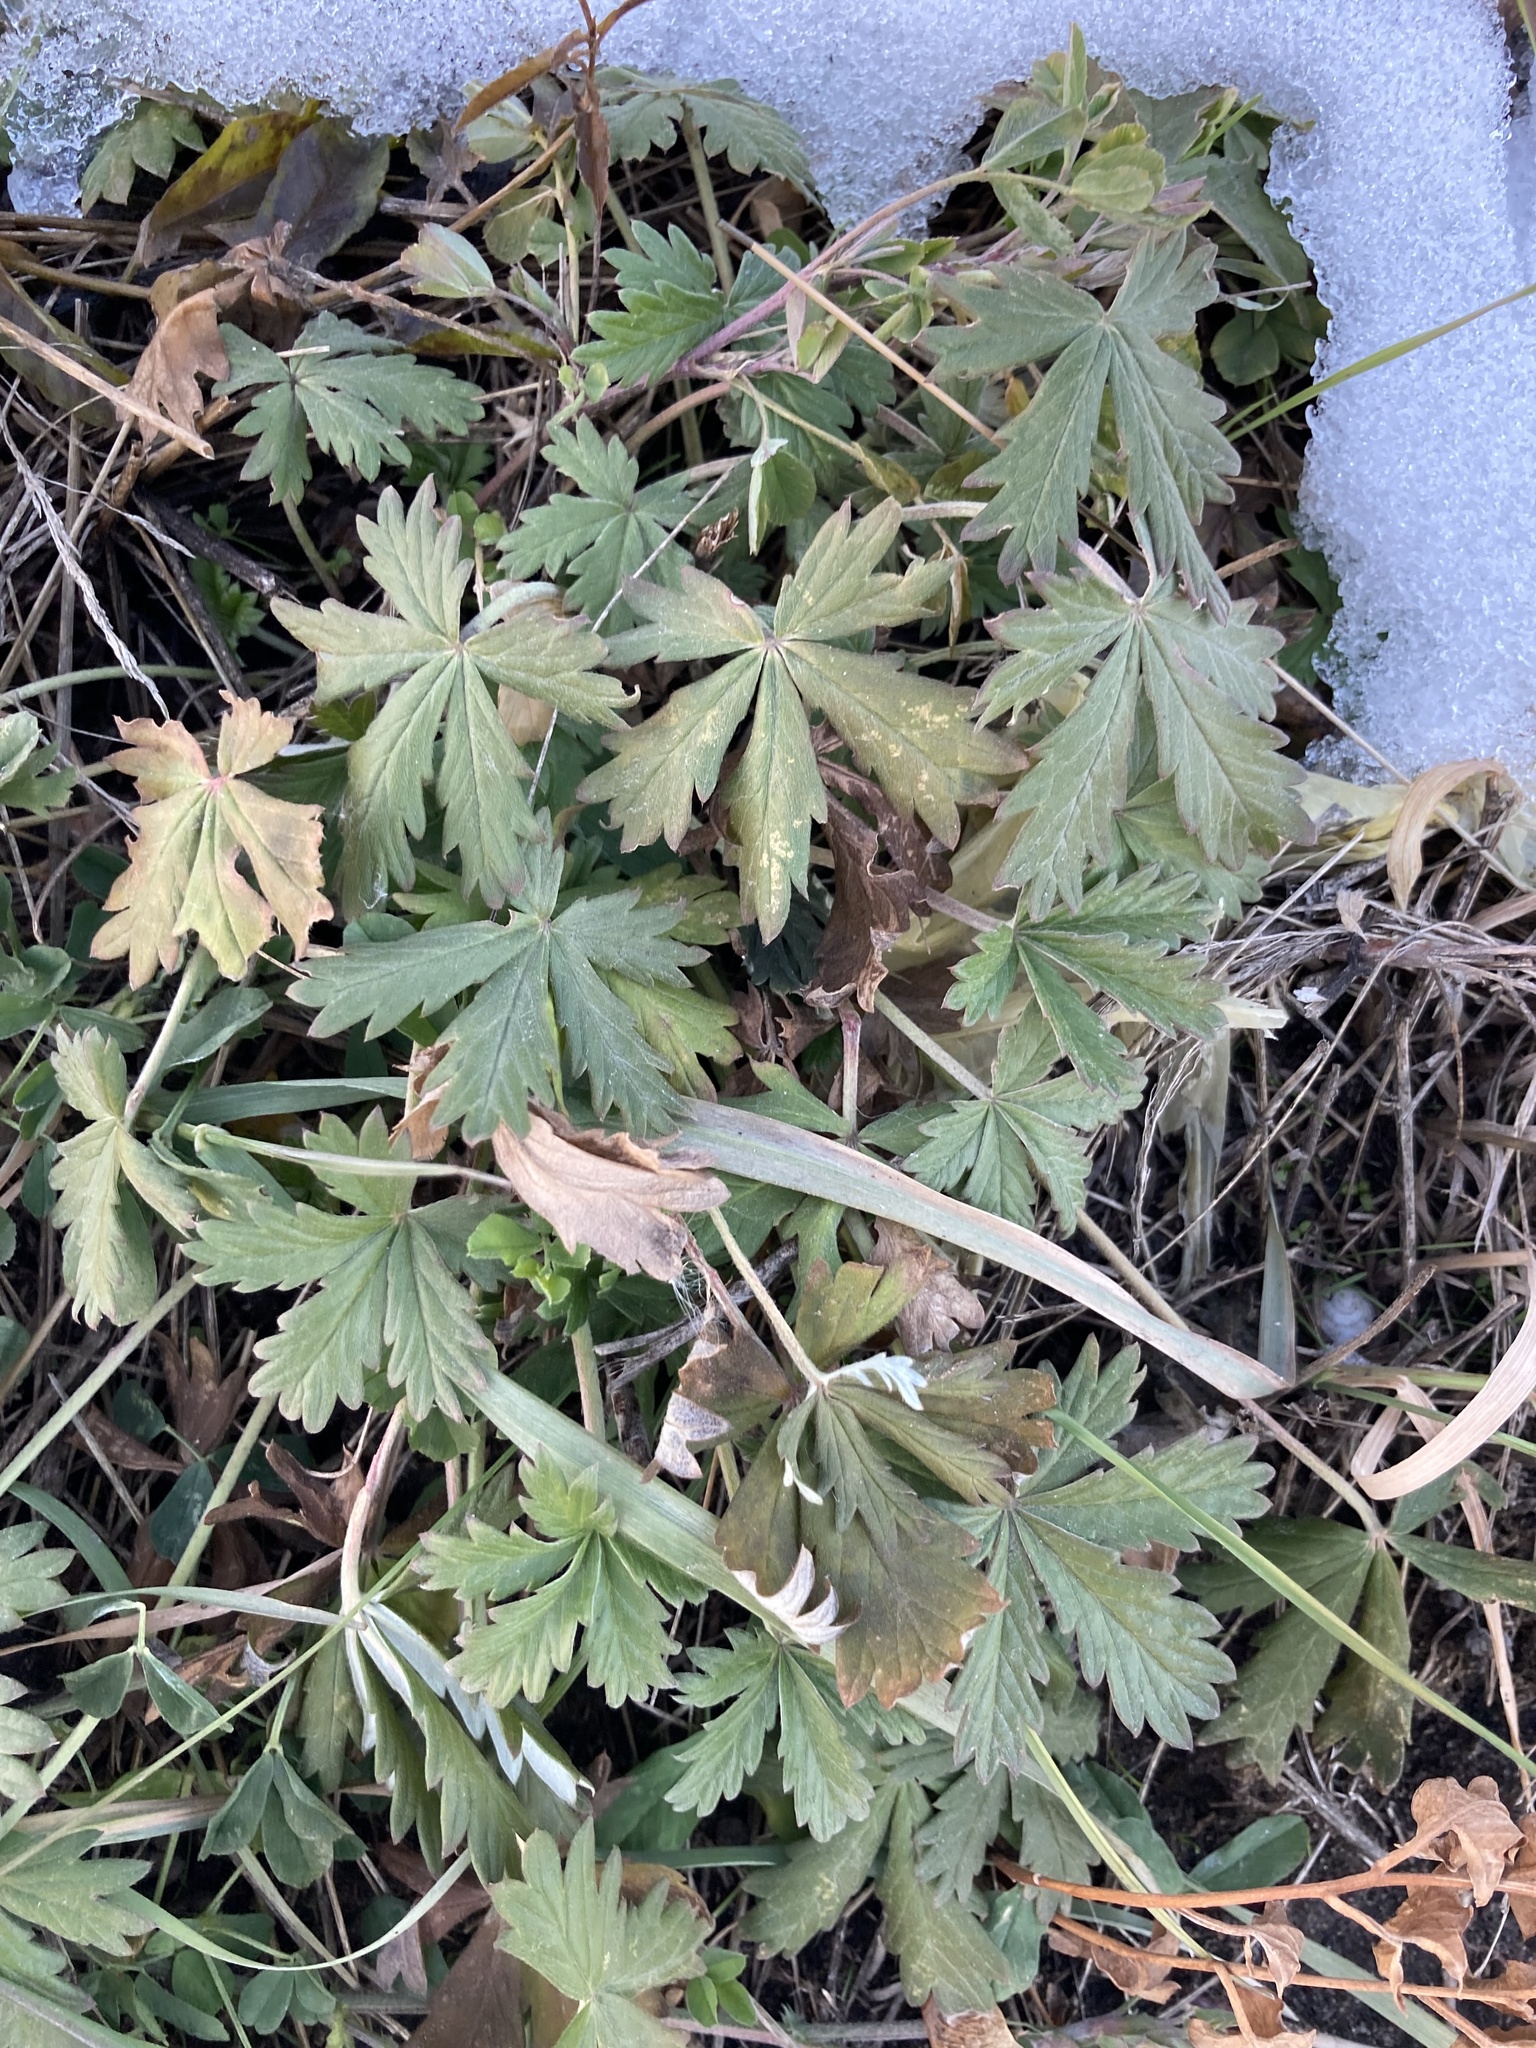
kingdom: Plantae
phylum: Tracheophyta
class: Magnoliopsida
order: Rosales
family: Rosaceae
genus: Potentilla
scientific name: Potentilla argentea
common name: Hoary cinquefoil
